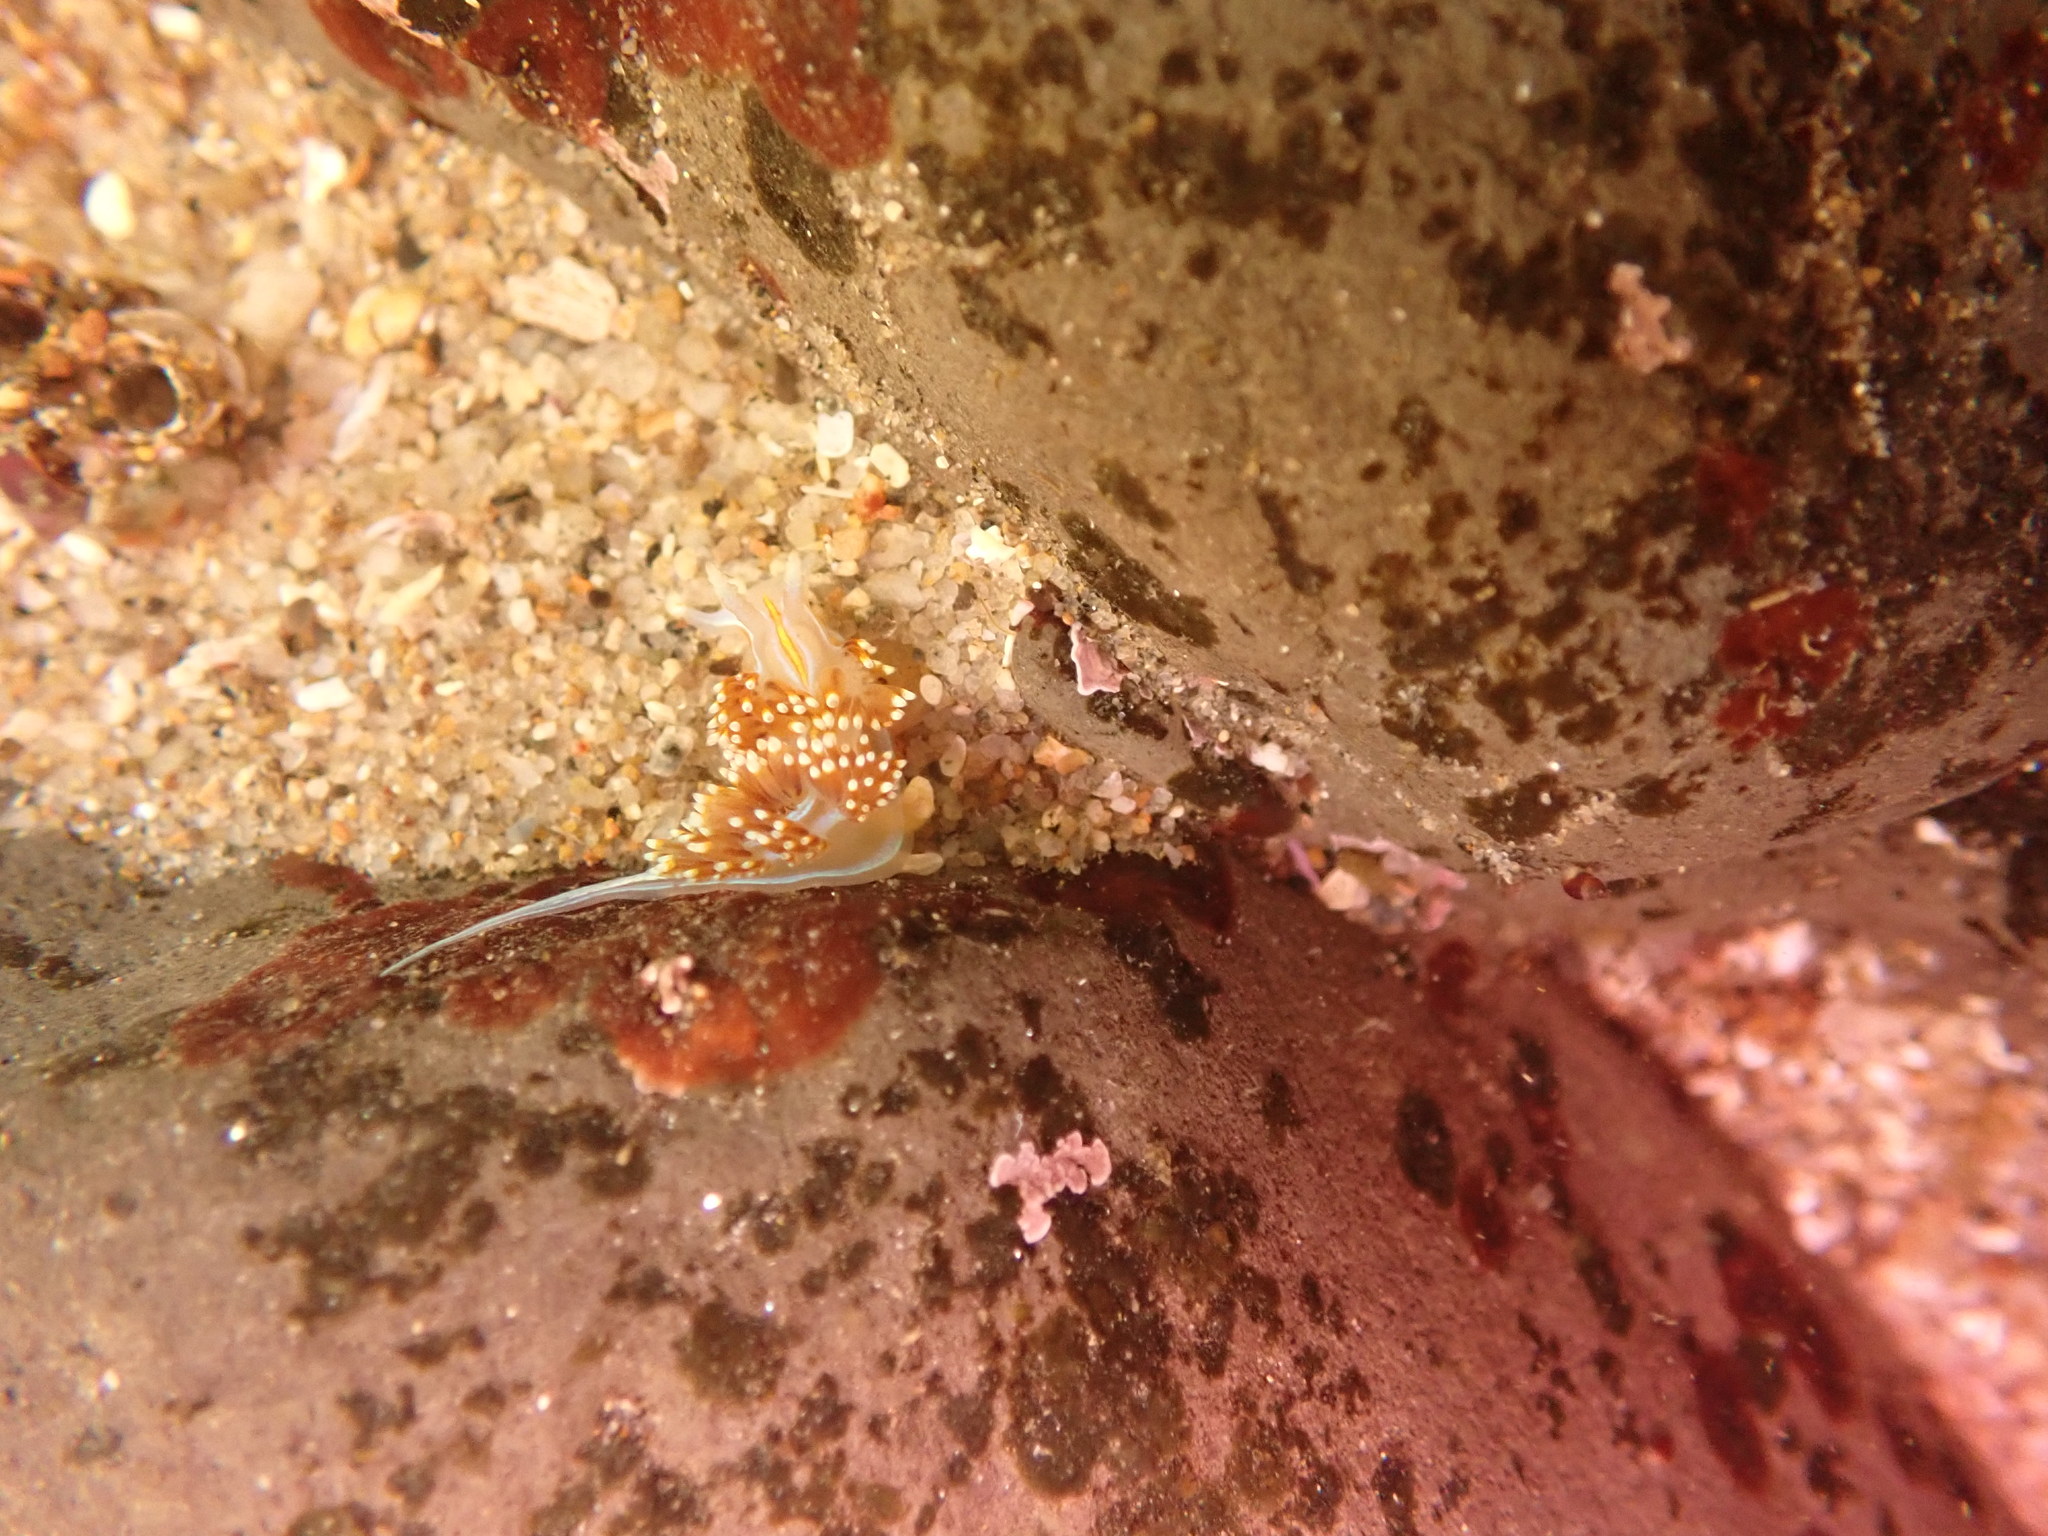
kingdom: Animalia
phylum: Mollusca
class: Gastropoda
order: Nudibranchia
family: Myrrhinidae
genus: Hermissenda
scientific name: Hermissenda opalescens
